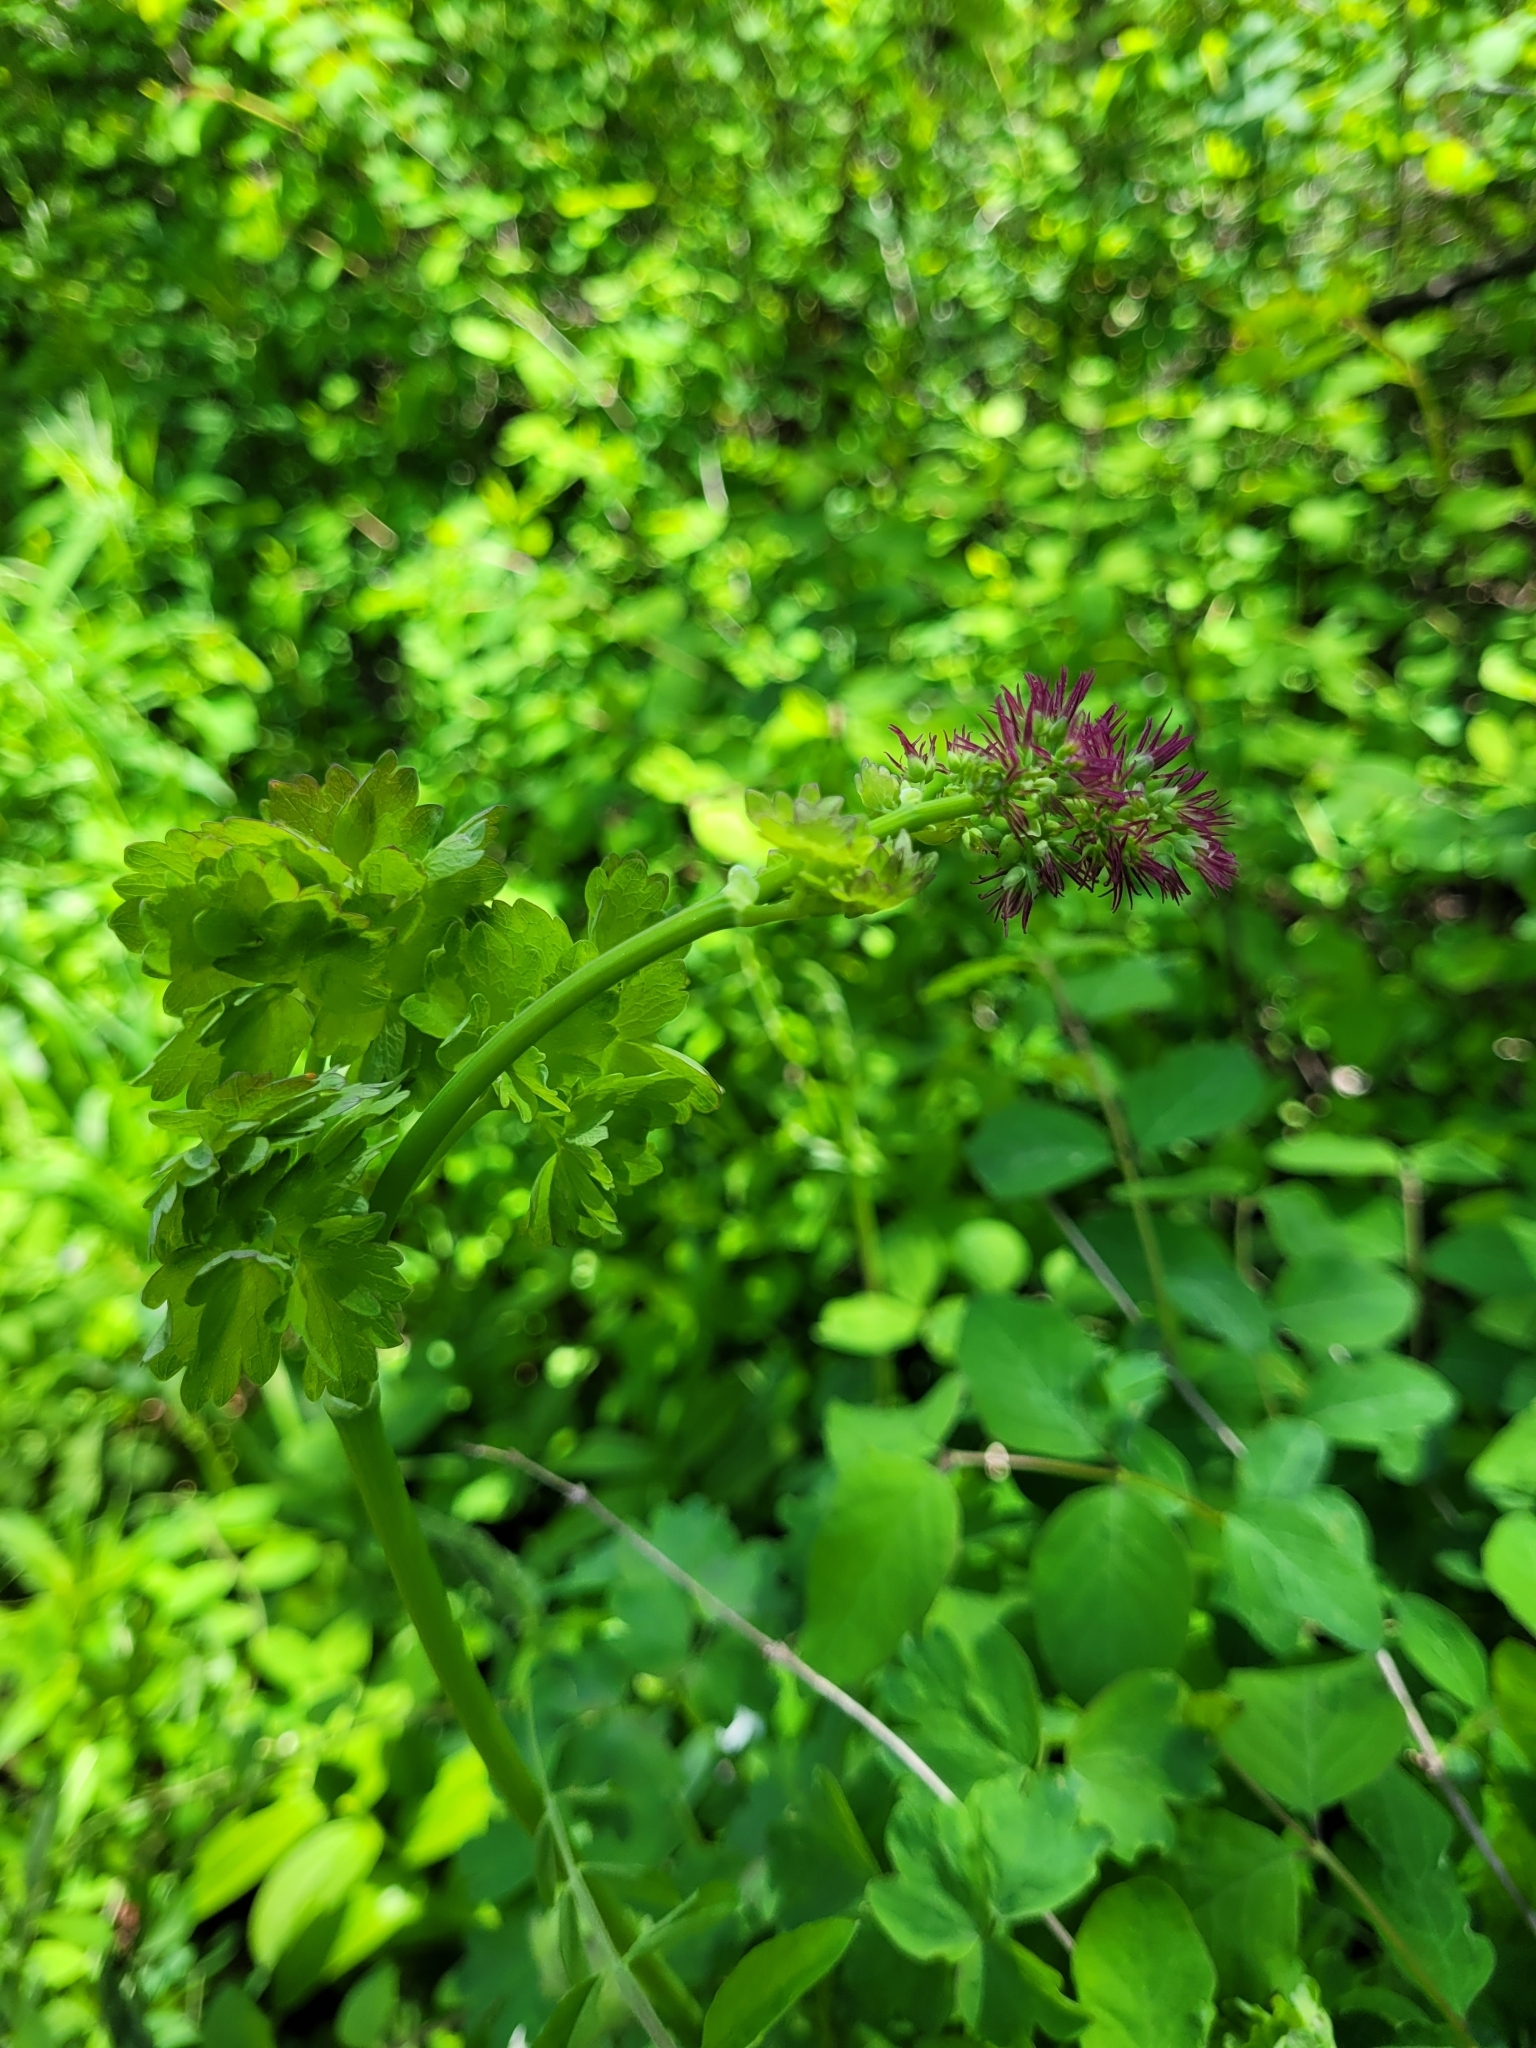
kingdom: Plantae
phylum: Tracheophyta
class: Magnoliopsida
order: Ranunculales
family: Ranunculaceae
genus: Thalictrum
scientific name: Thalictrum occidentale
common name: Western meadow-rue
